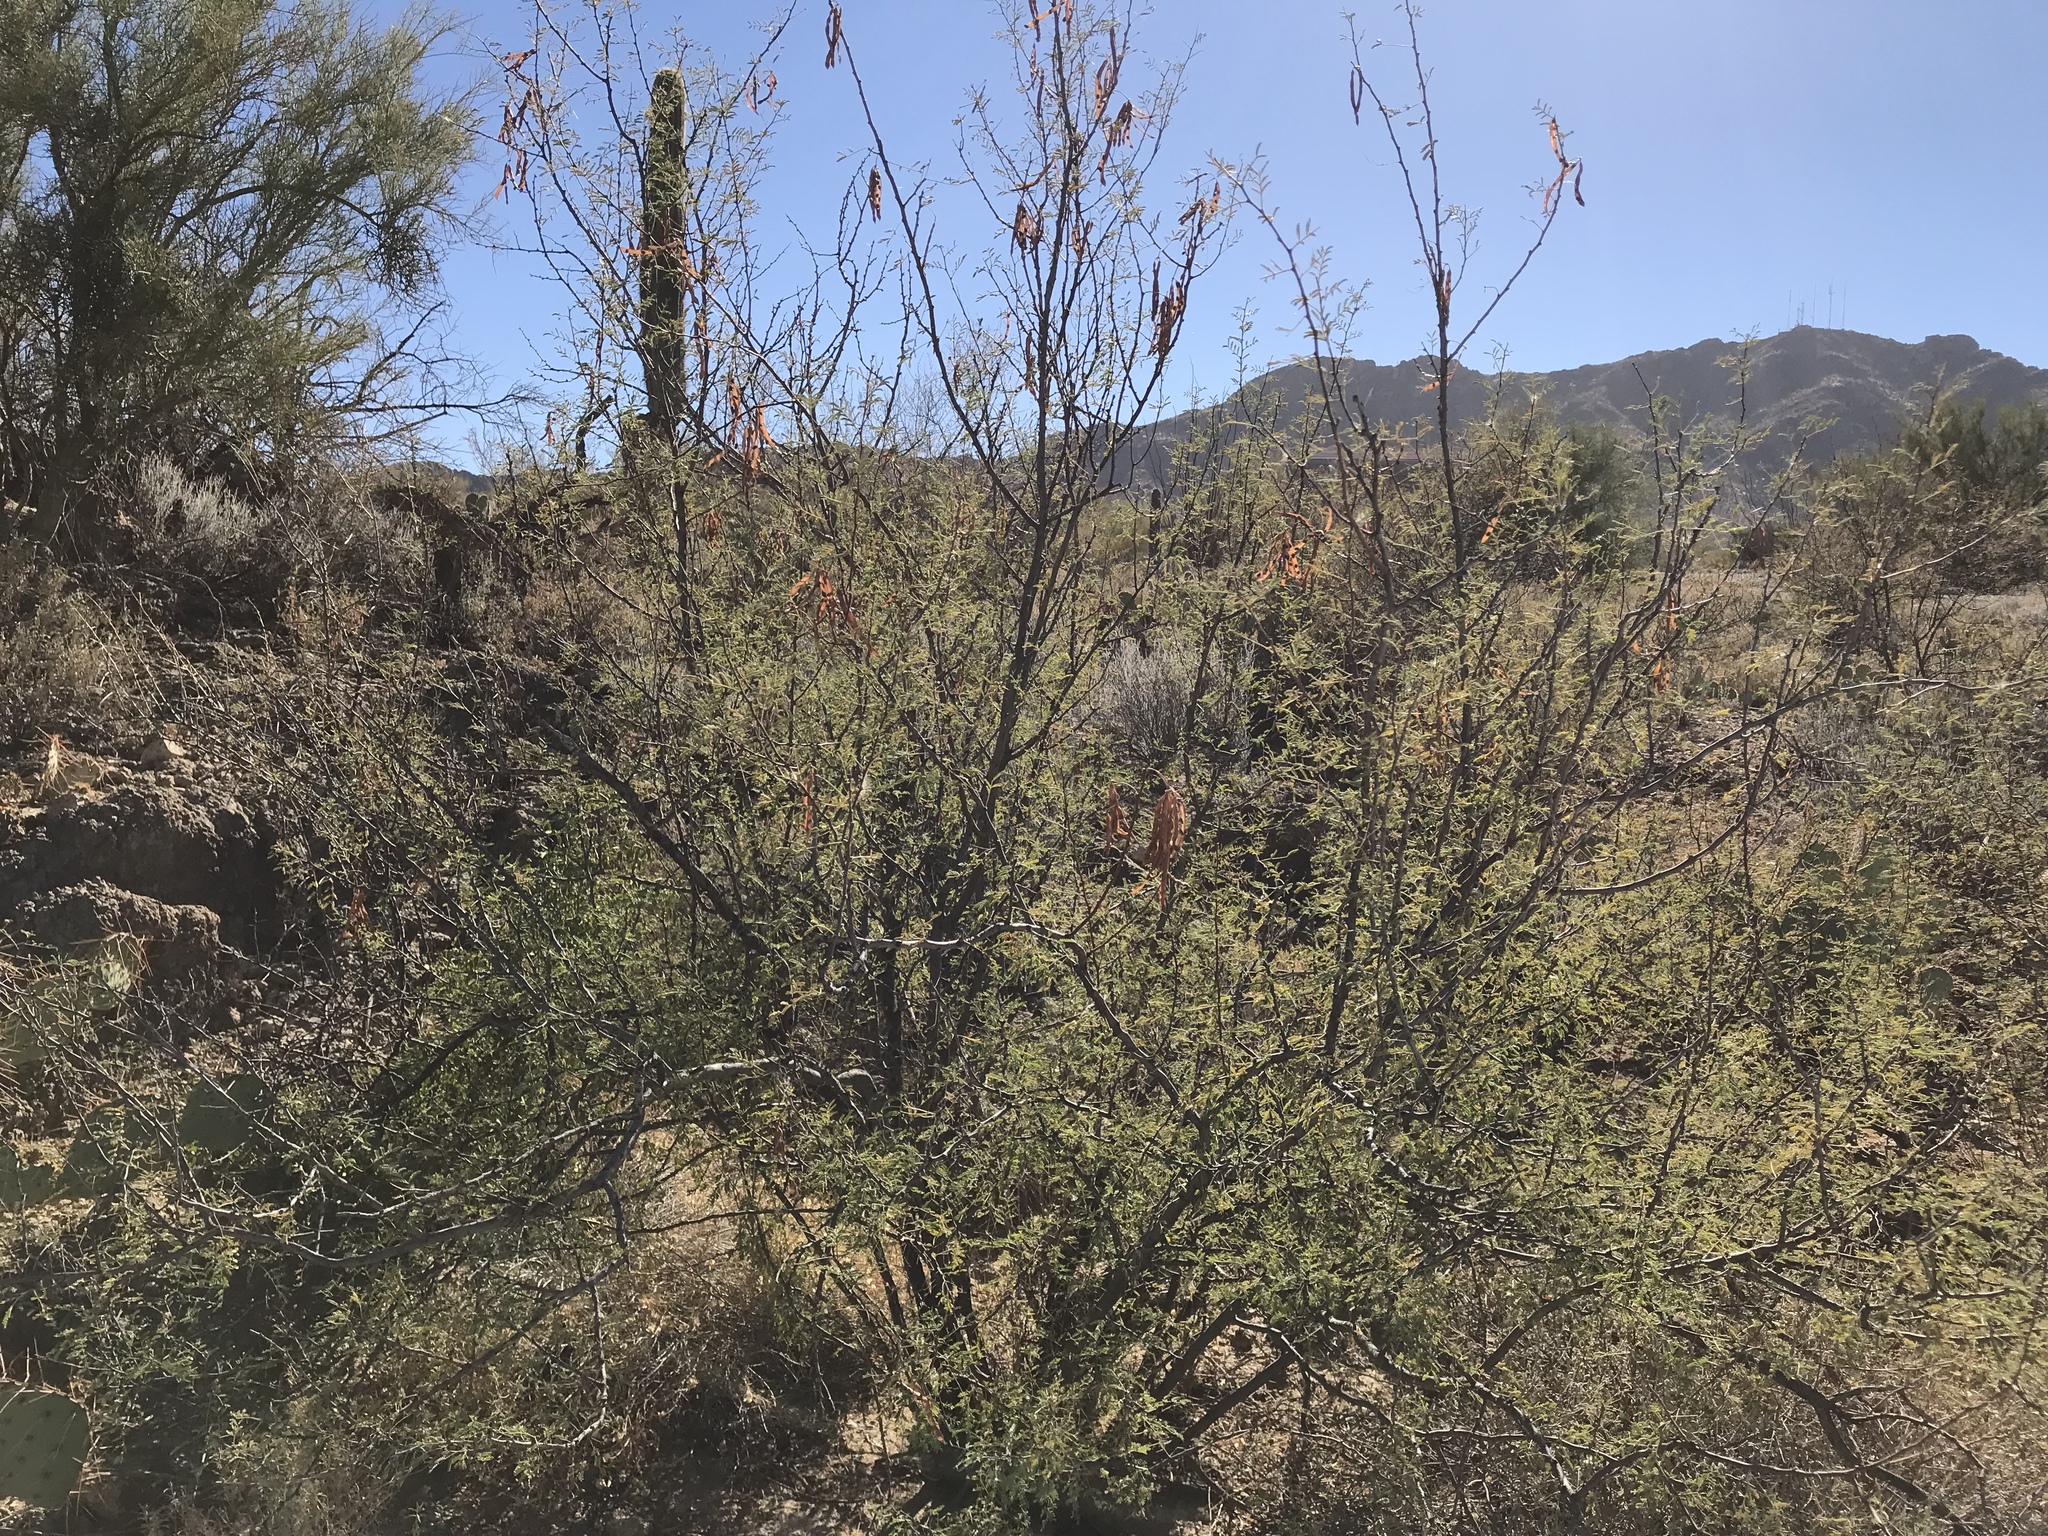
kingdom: Plantae
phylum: Tracheophyta
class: Magnoliopsida
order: Fabales
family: Fabaceae
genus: Vachellia
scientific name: Vachellia constricta
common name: Mescat acacia
